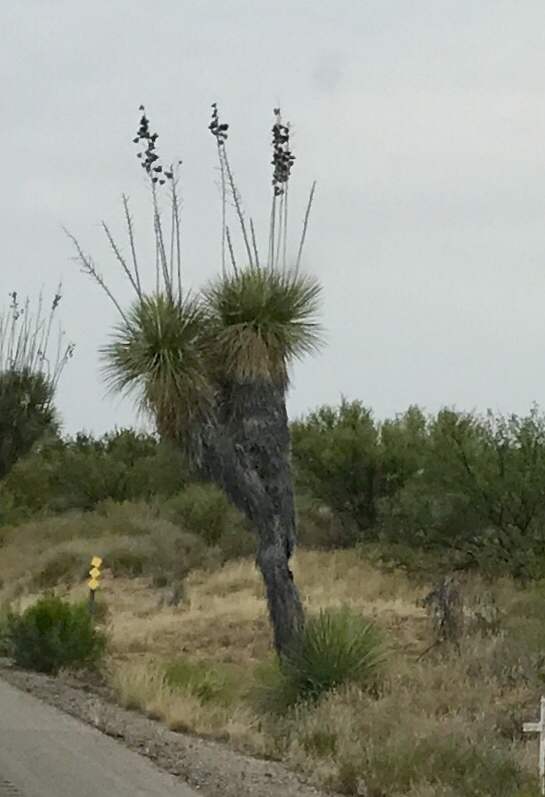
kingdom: Plantae
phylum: Tracheophyta
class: Liliopsida
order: Asparagales
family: Asparagaceae
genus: Yucca
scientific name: Yucca elata
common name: Palmella
